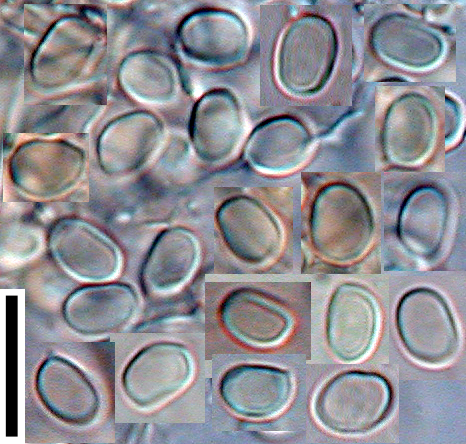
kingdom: Fungi
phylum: Basidiomycota
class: Agaricomycetes
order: Hymenochaetales
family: Schizoporaceae
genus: Lyomyces
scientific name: Lyomyces
